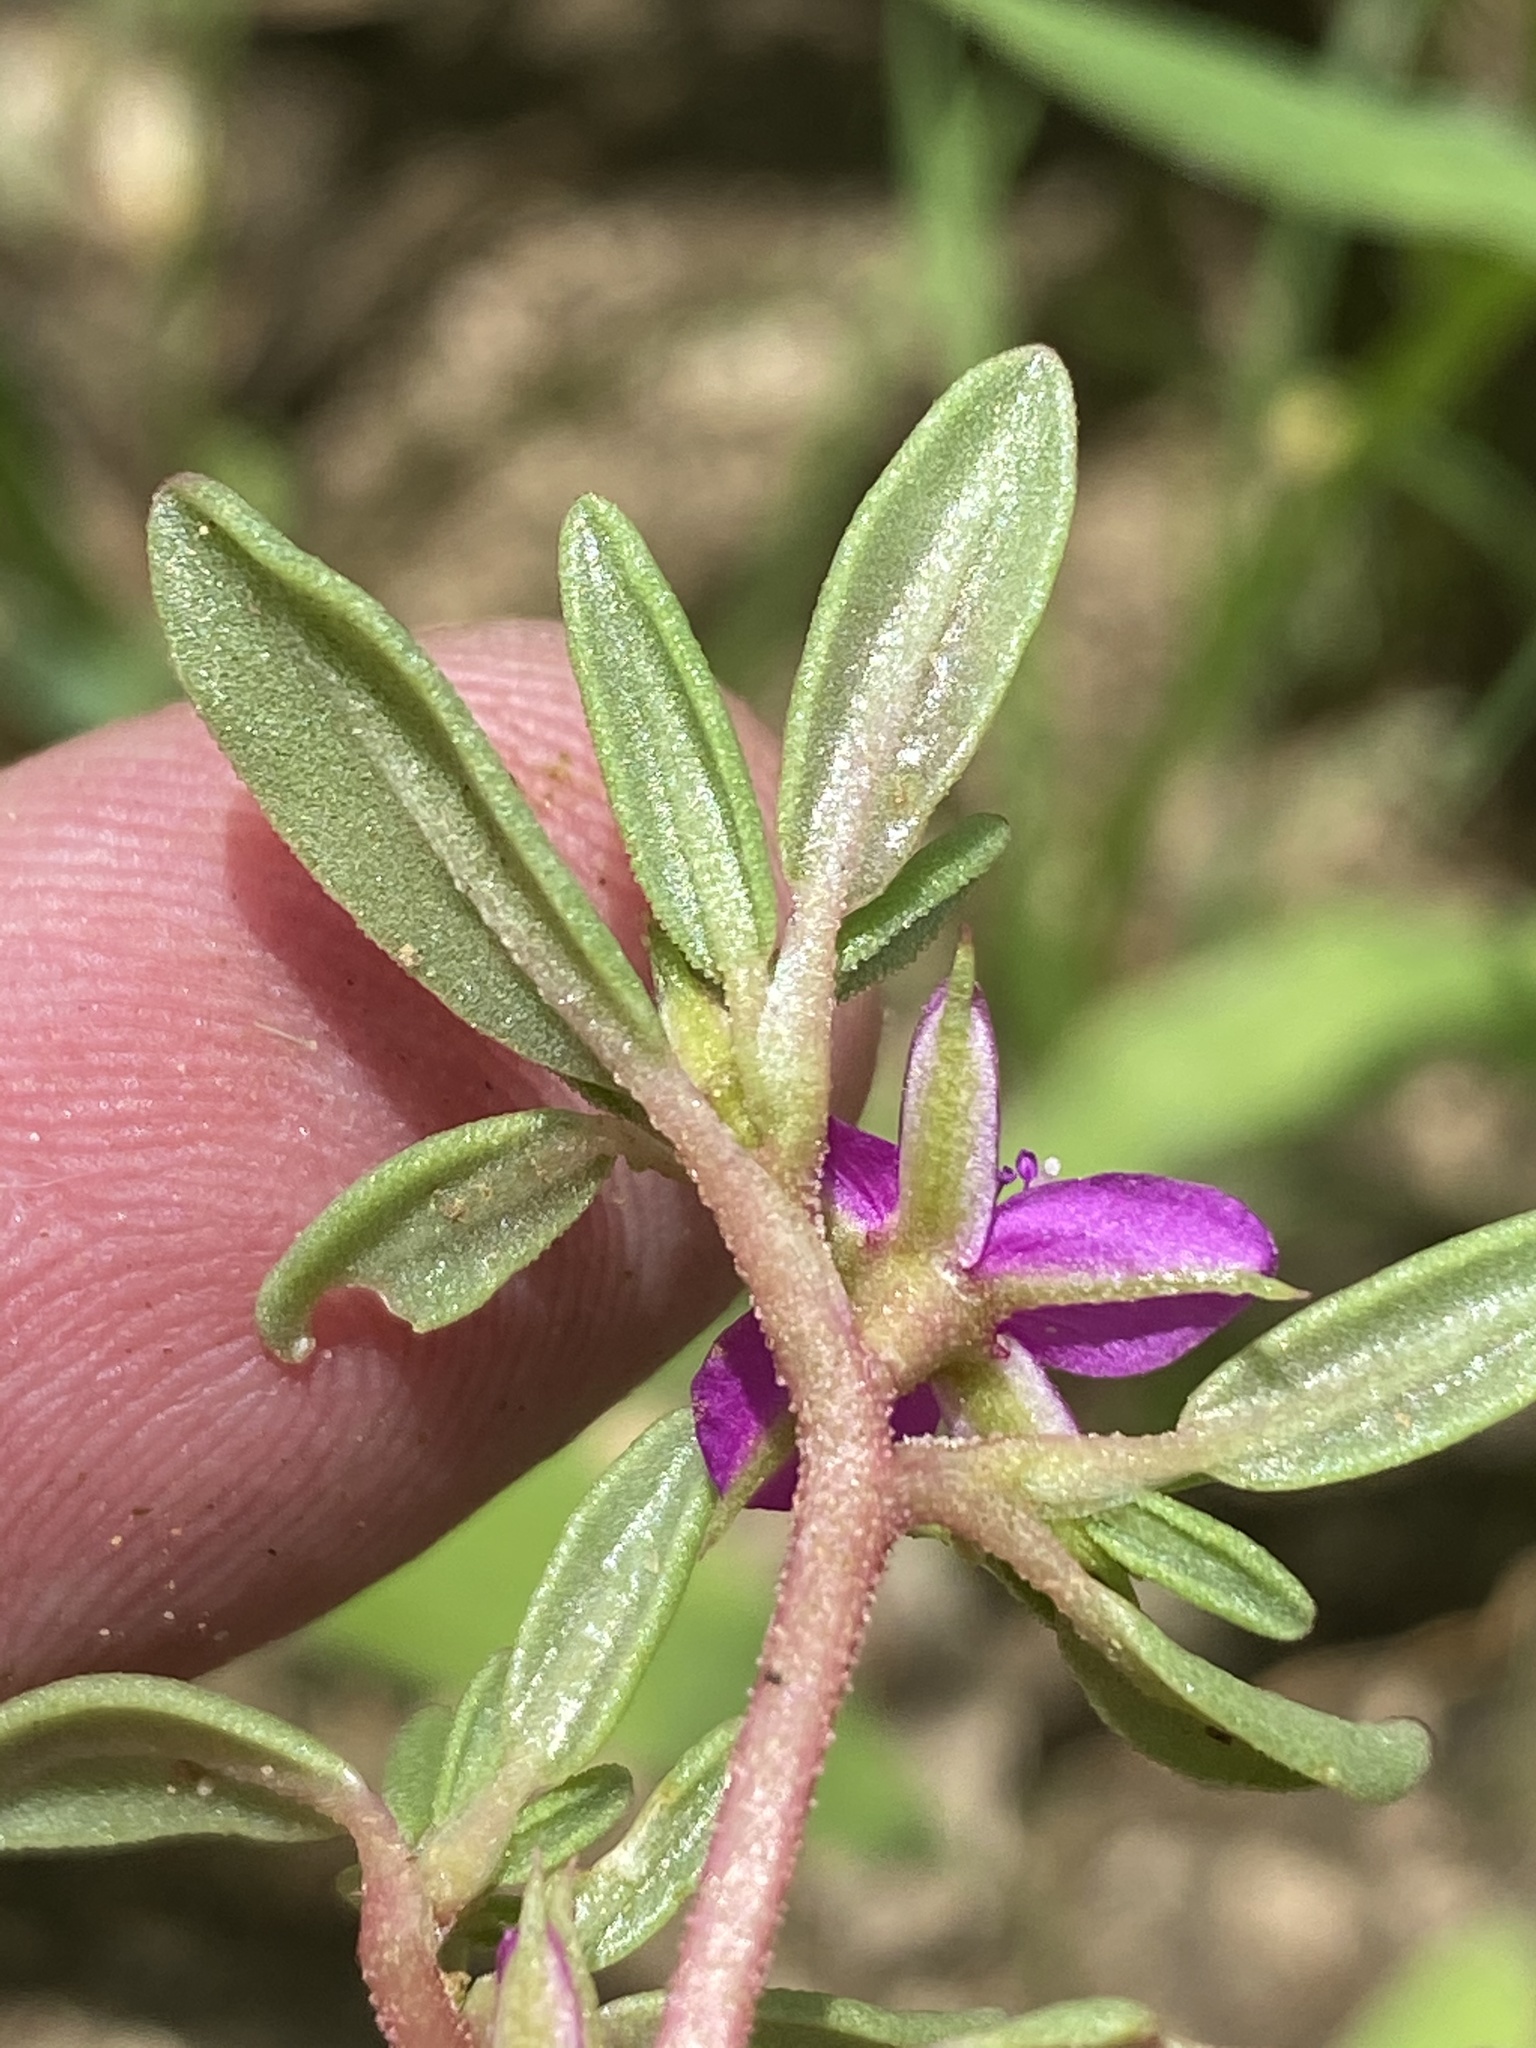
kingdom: Plantae
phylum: Tracheophyta
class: Magnoliopsida
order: Caryophyllales
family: Aizoaceae
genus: Sesuvium
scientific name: Sesuvium sesuvioides
